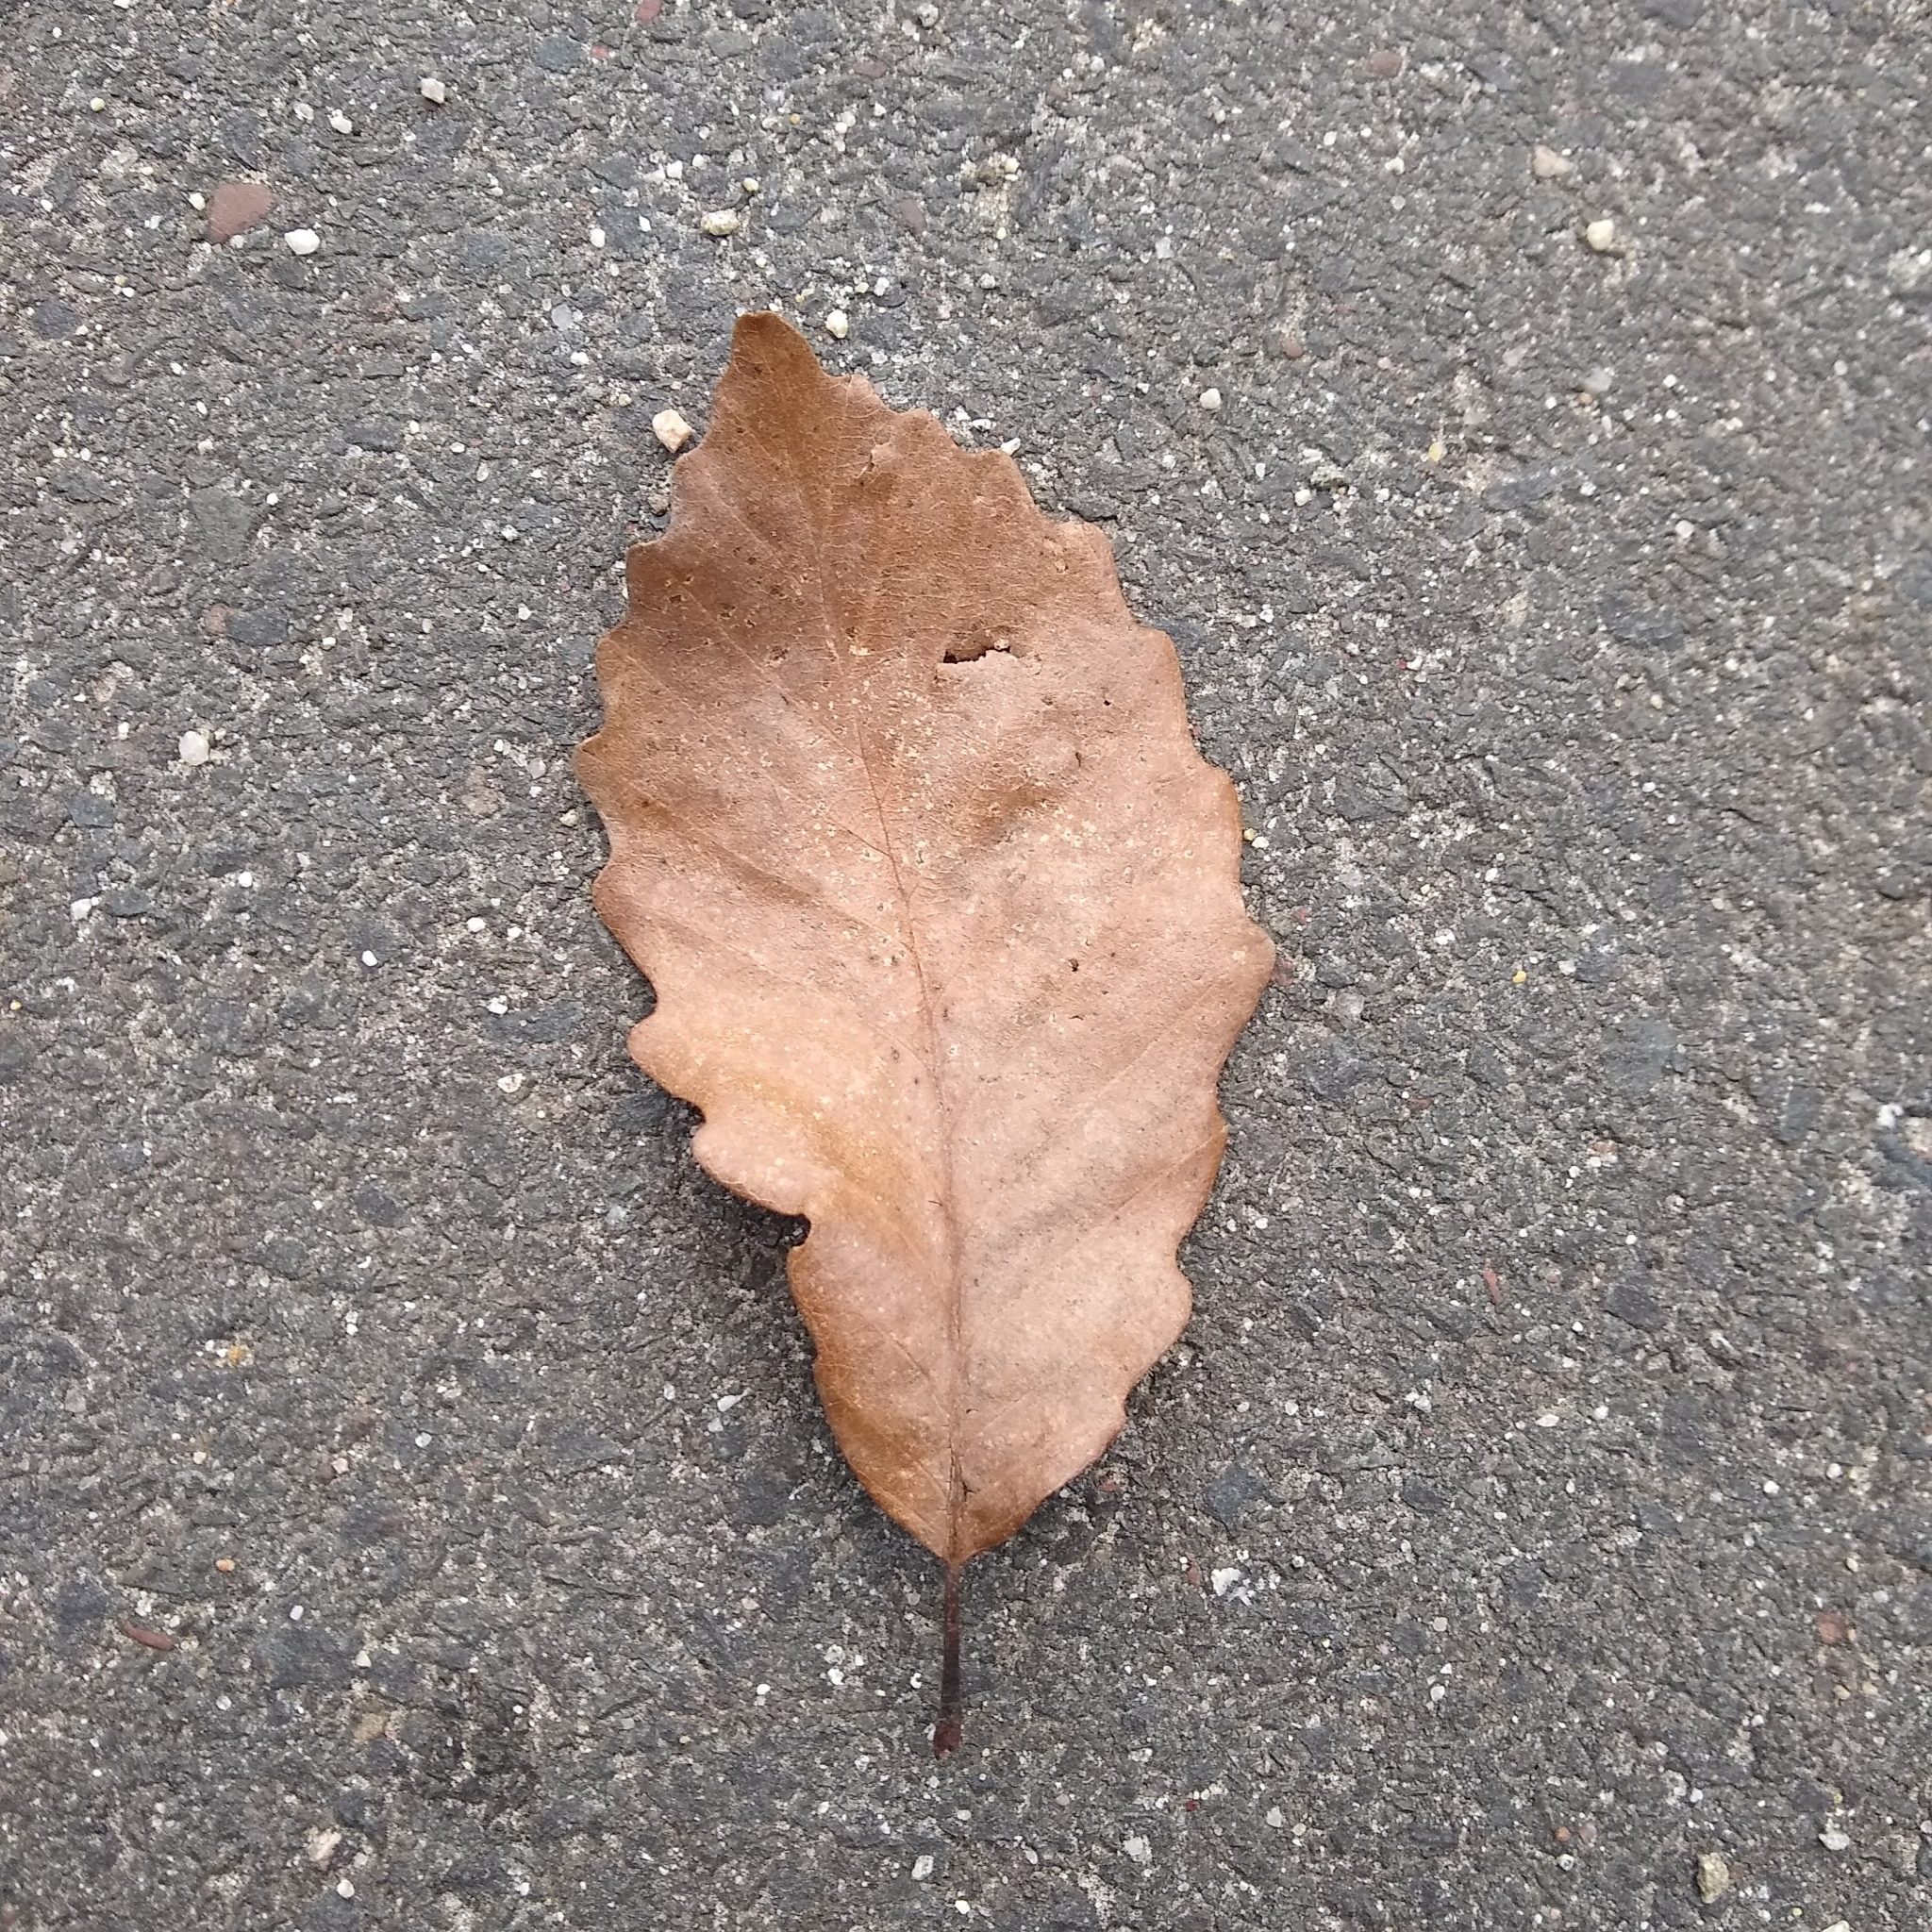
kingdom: Plantae
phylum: Tracheophyta
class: Magnoliopsida
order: Fagales
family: Fagaceae
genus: Quercus
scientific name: Quercus montana
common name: Chestnut oak
